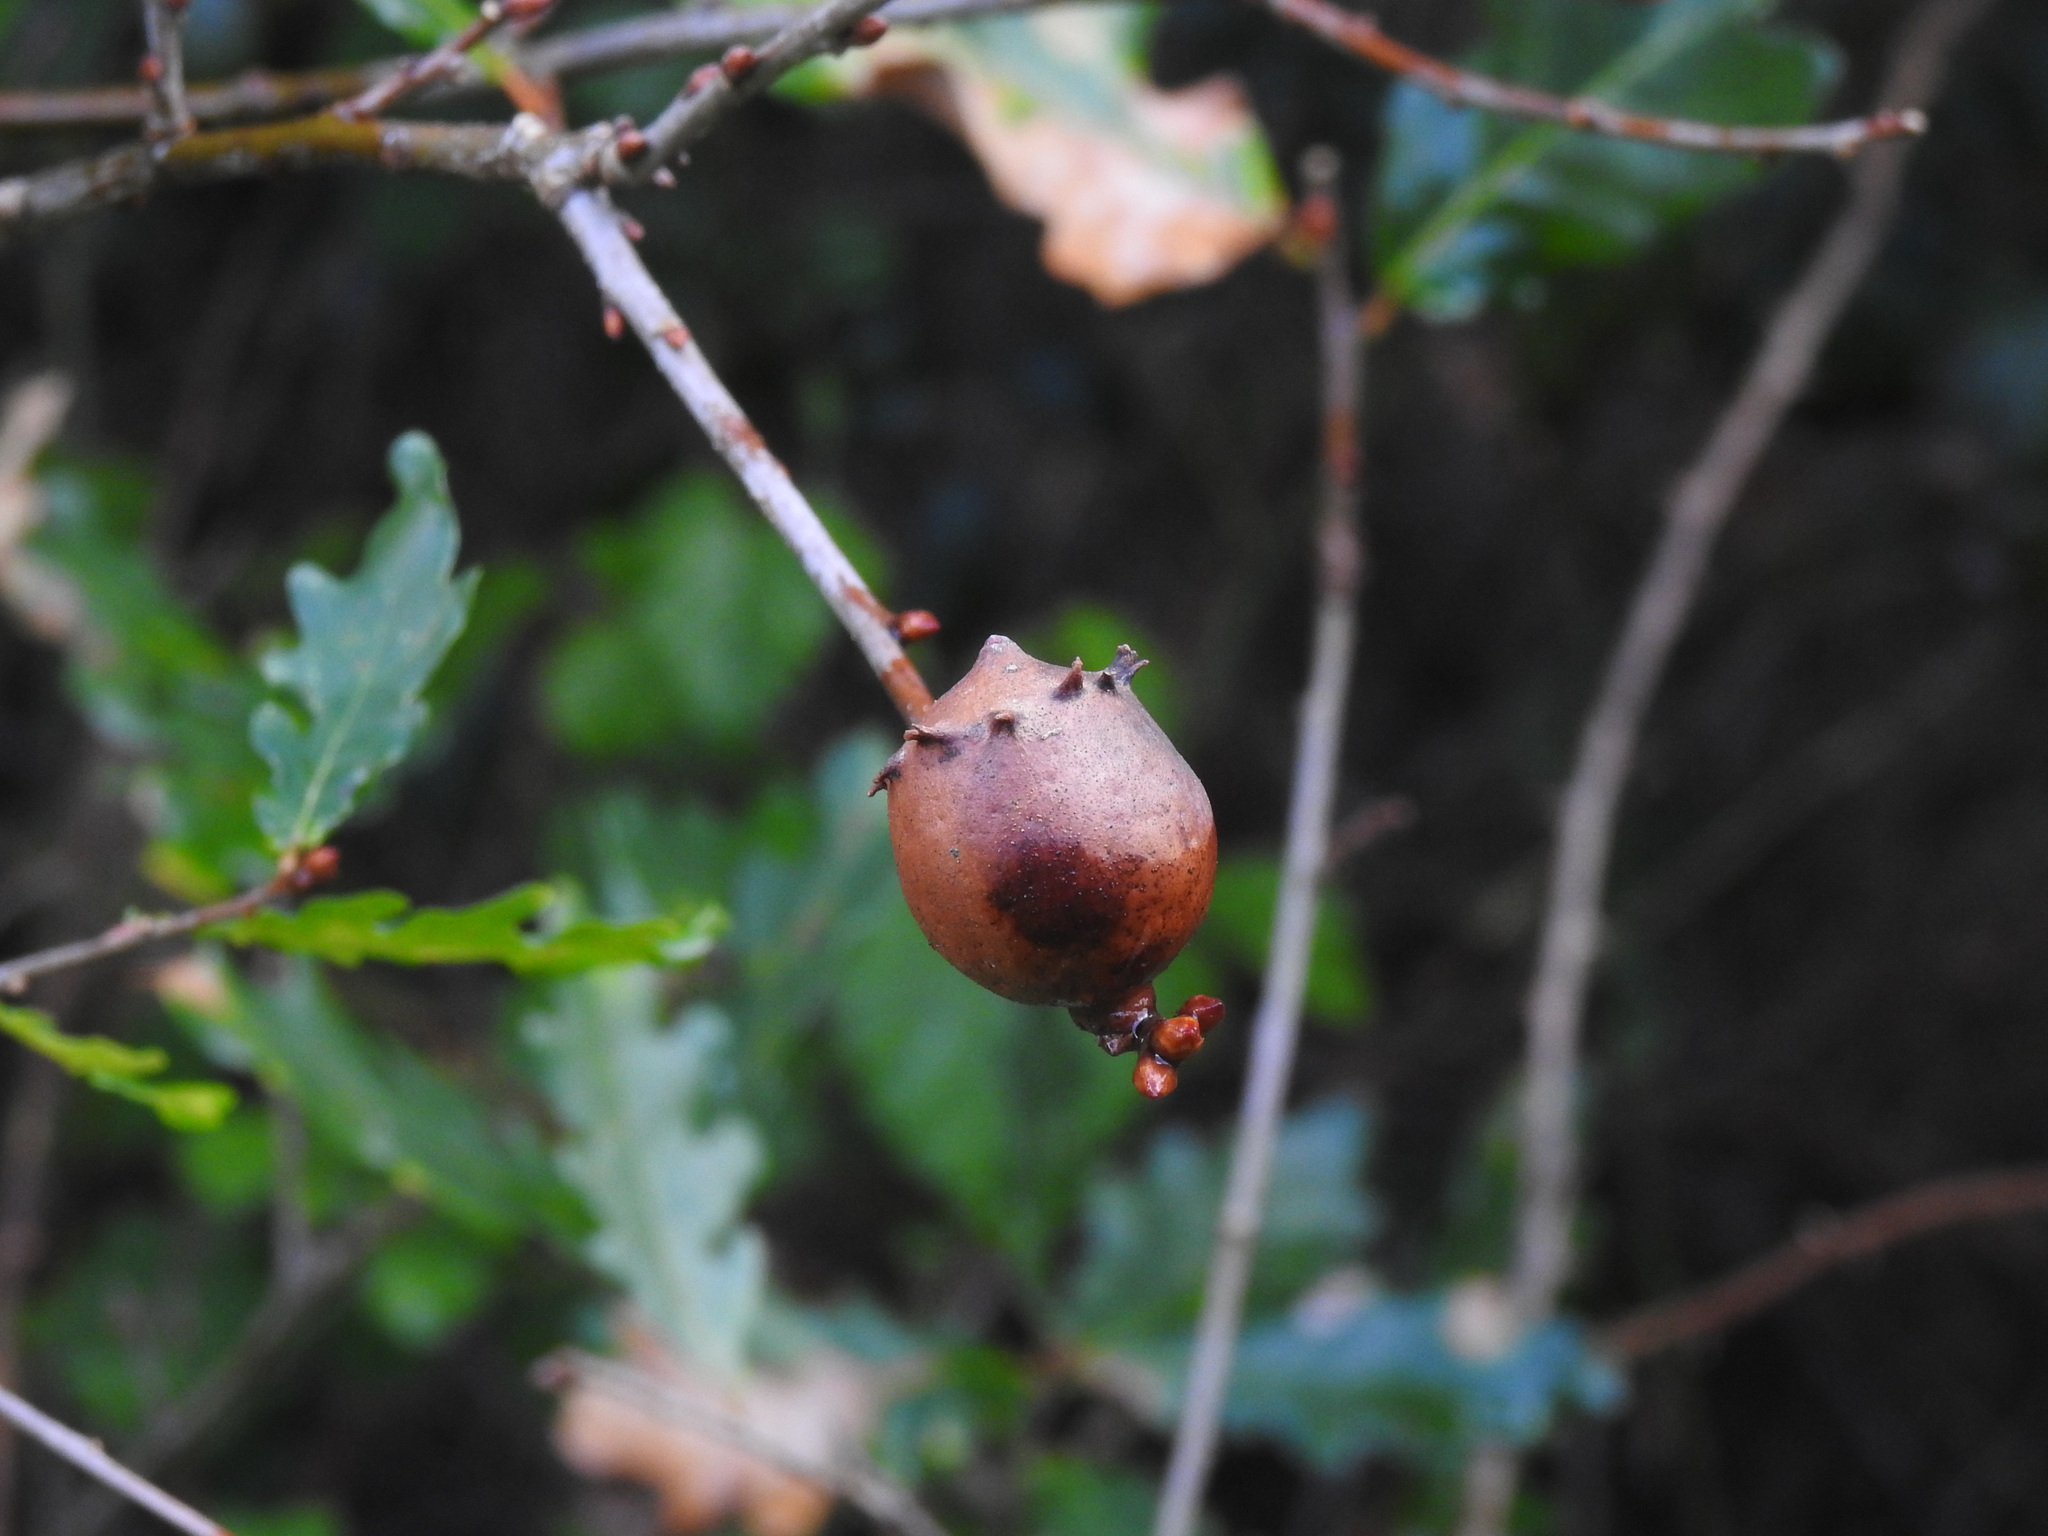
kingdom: Animalia
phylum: Arthropoda
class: Insecta
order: Hymenoptera
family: Cynipidae
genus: Andricus
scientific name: Andricus quercustozae
